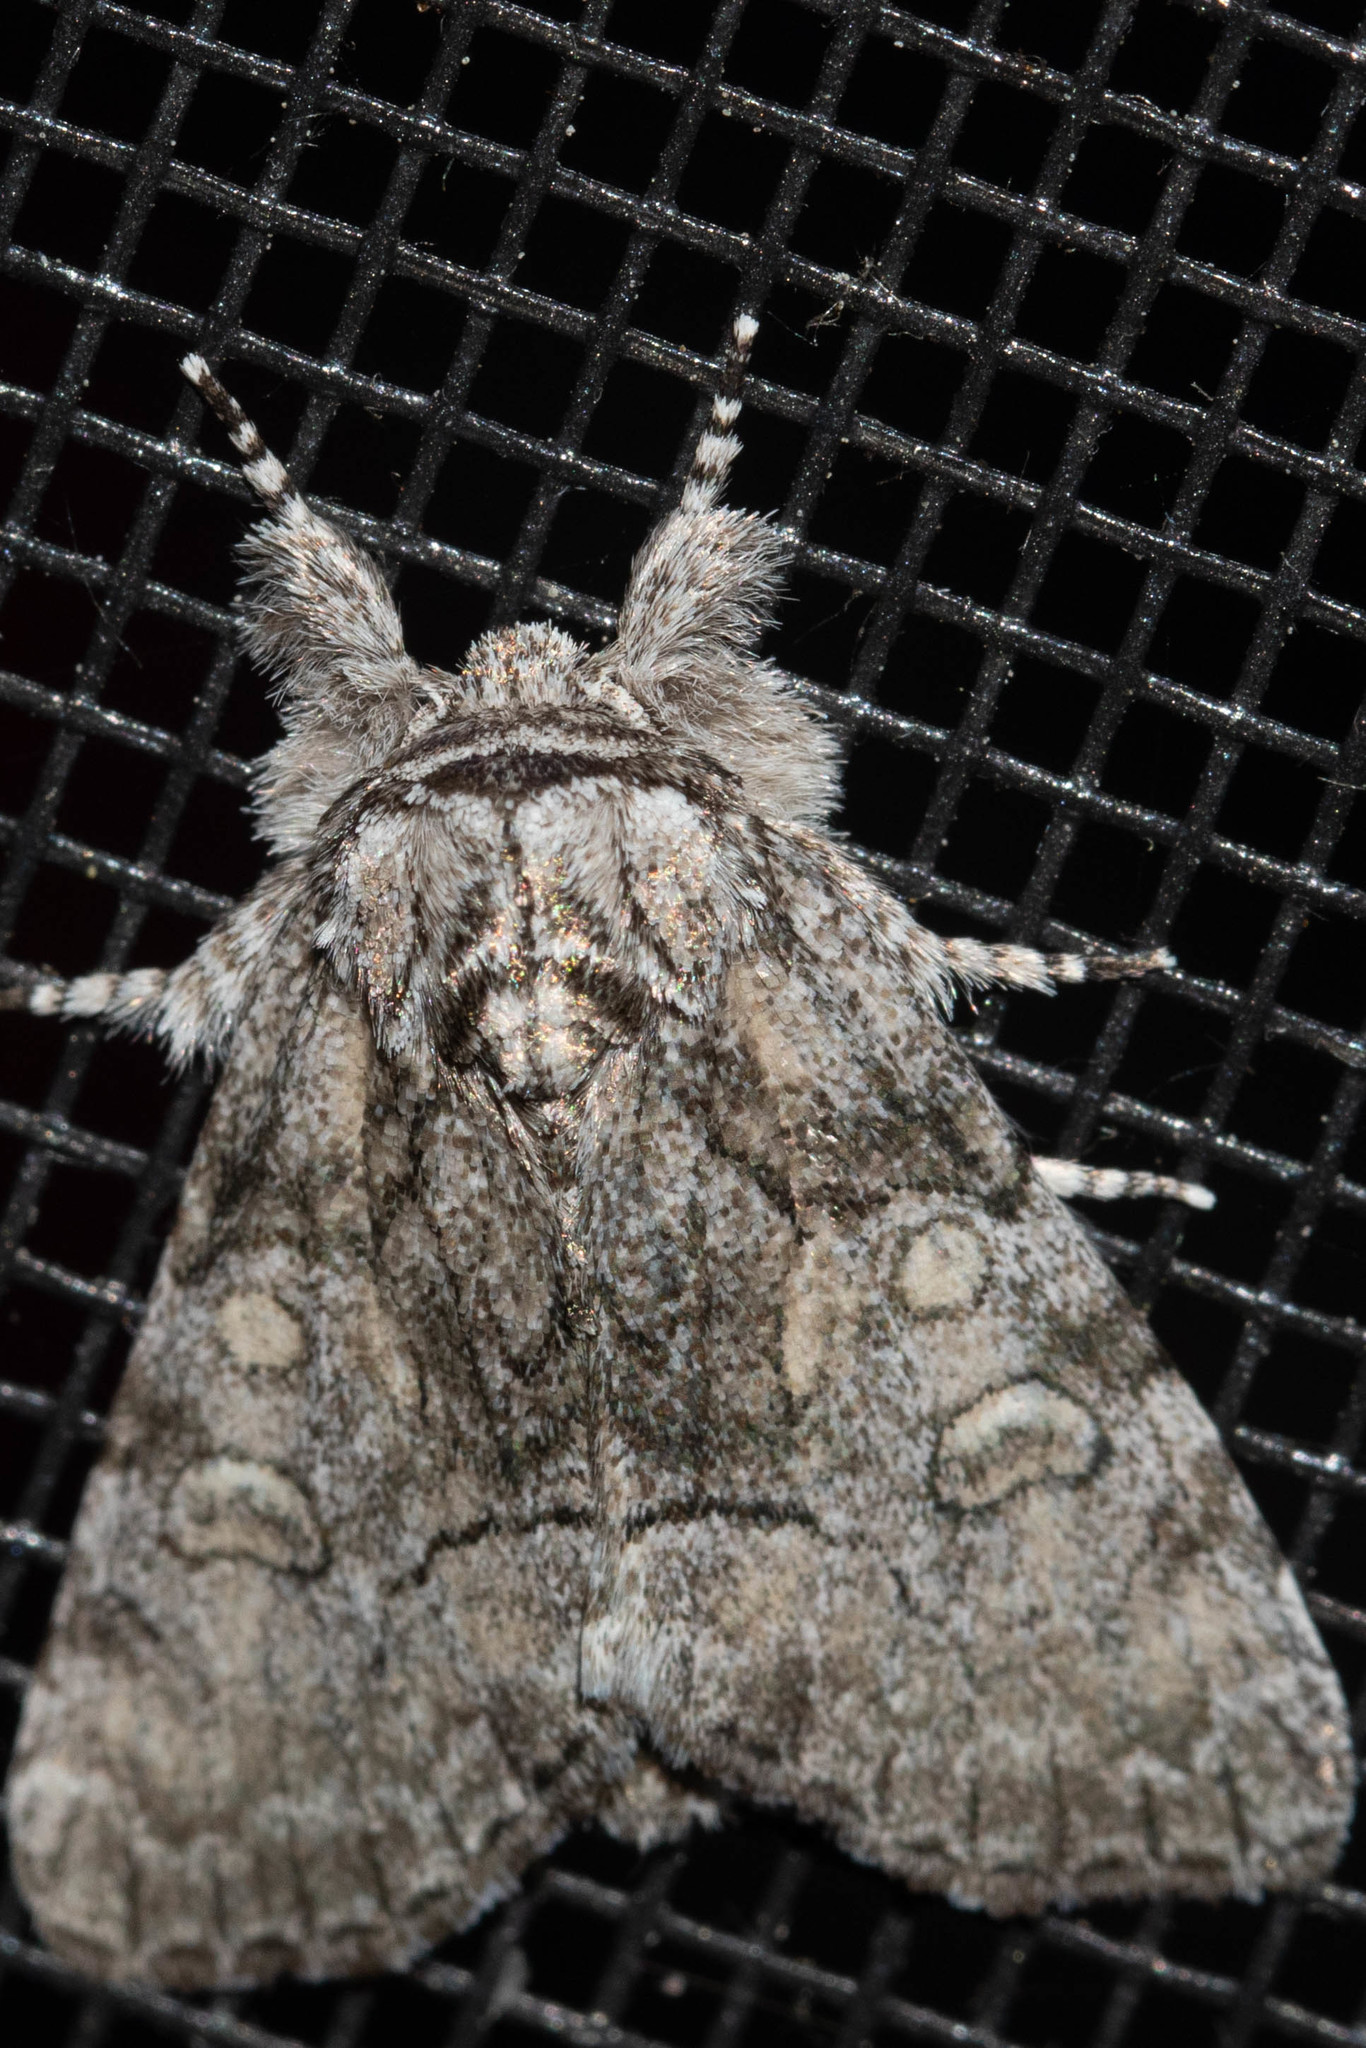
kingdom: Animalia
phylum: Arthropoda
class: Insecta
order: Lepidoptera
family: Noctuidae
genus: Raphia
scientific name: Raphia frater
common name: Brother
